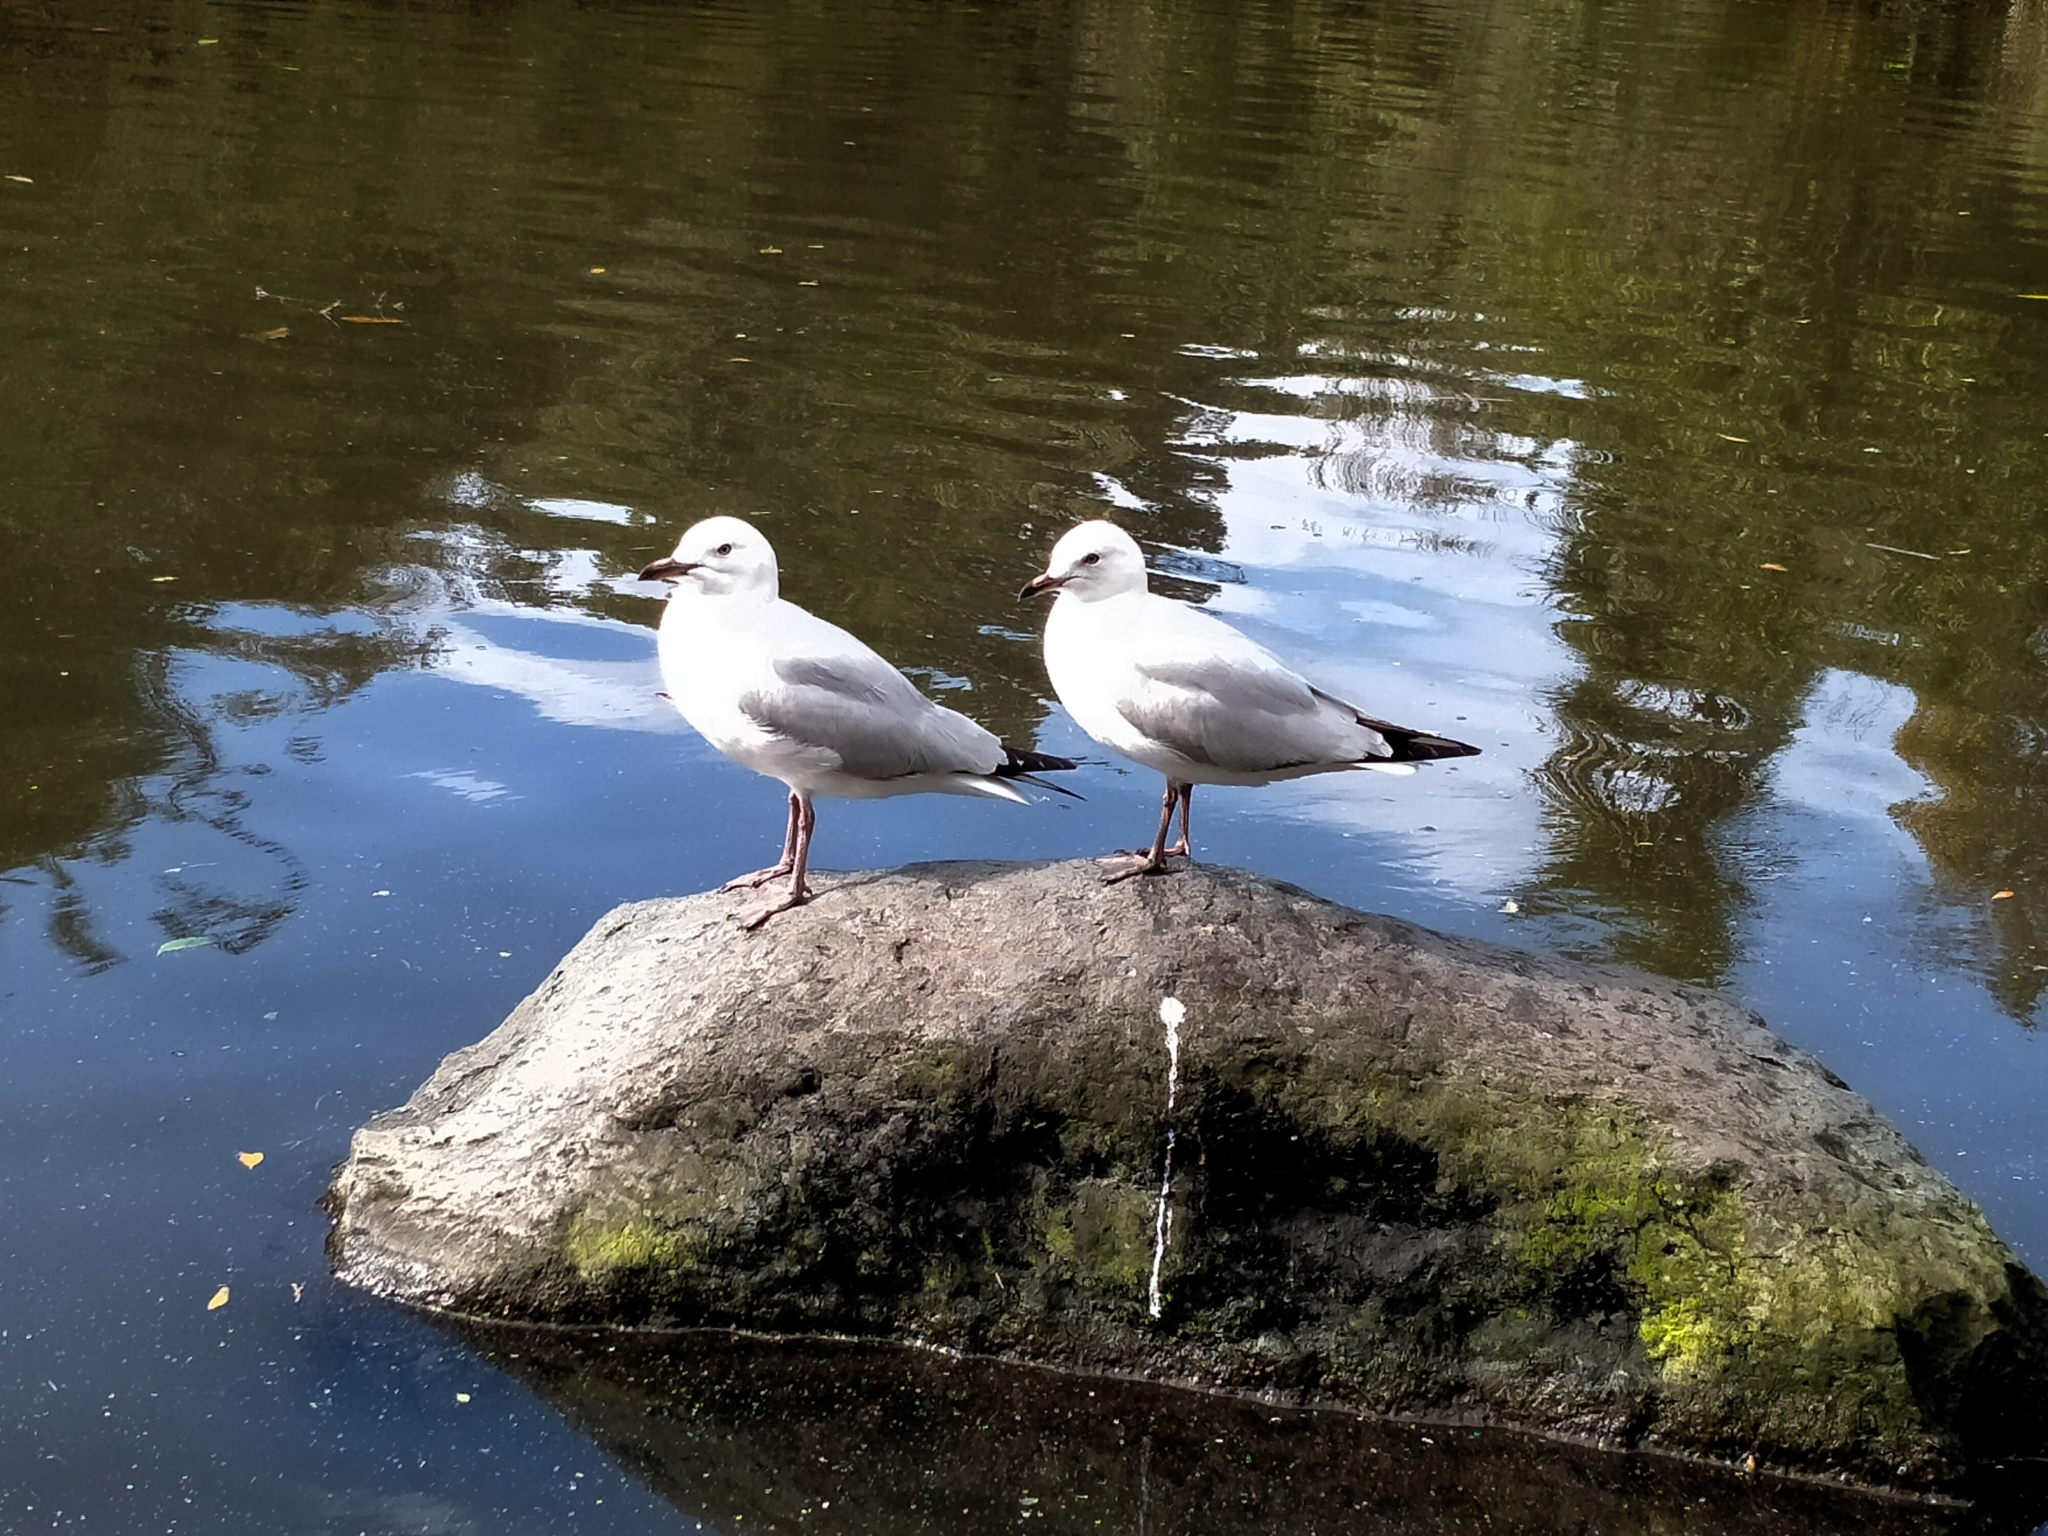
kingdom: Animalia
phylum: Chordata
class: Aves
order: Charadriiformes
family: Laridae
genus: Chroicocephalus
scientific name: Chroicocephalus novaehollandiae
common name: Silver gull
